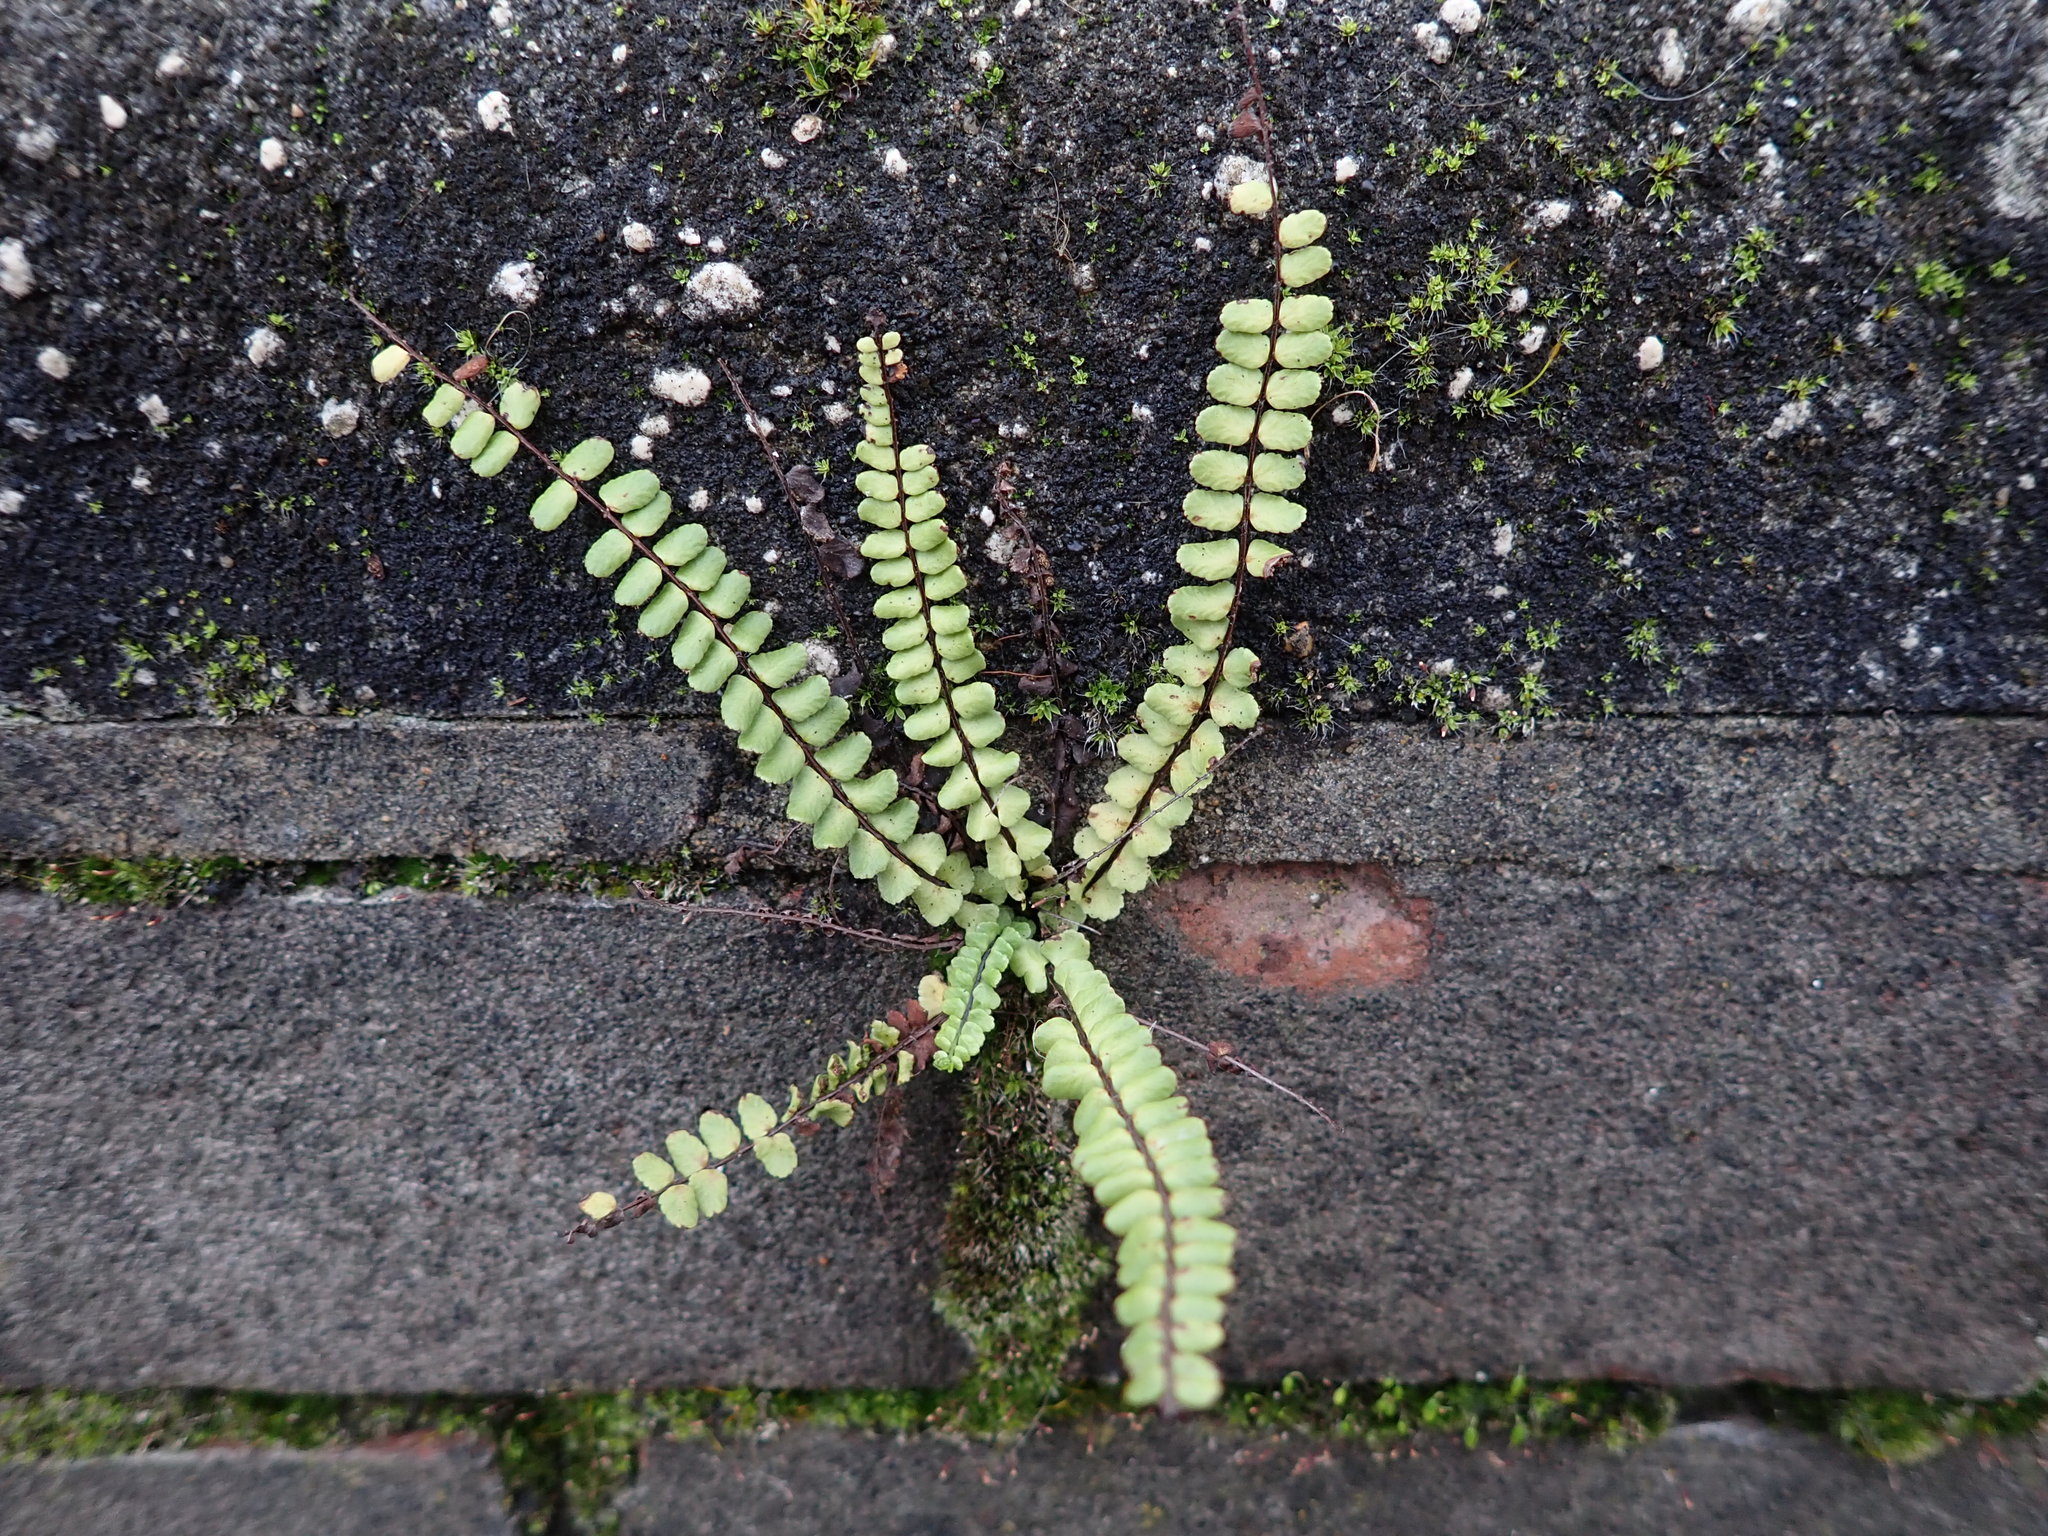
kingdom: Plantae
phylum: Tracheophyta
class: Polypodiopsida
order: Polypodiales
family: Aspleniaceae
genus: Asplenium
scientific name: Asplenium trichomanes
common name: Maidenhair spleenwort
